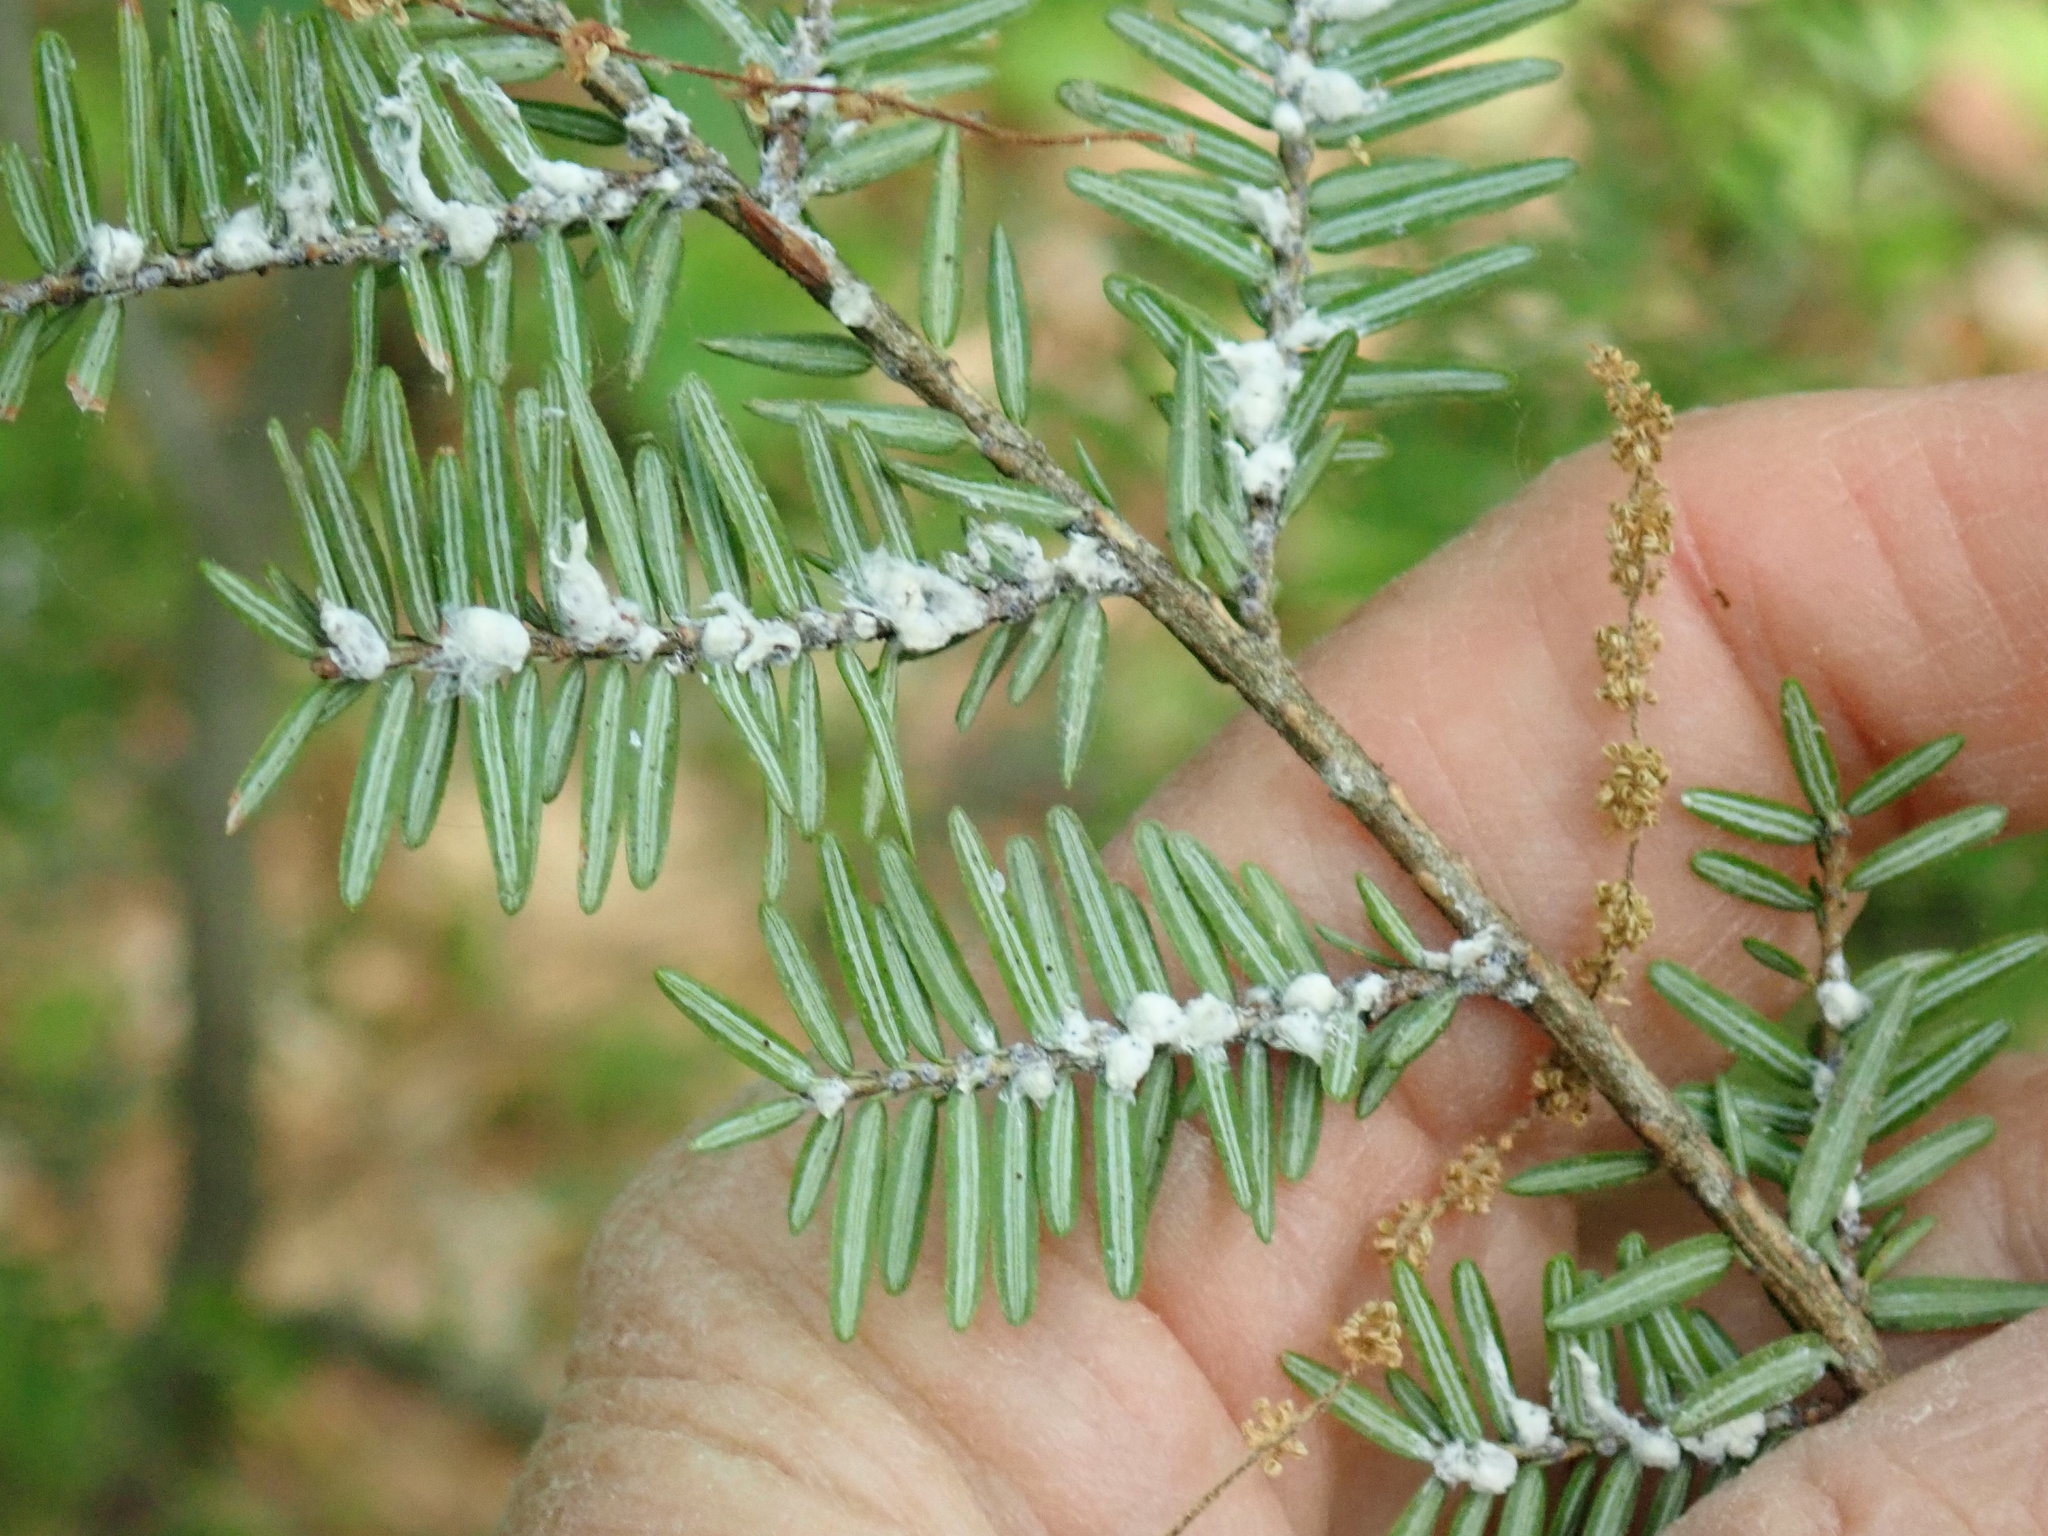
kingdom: Animalia
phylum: Arthropoda
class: Insecta
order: Hemiptera
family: Adelgidae
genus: Adelges
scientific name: Adelges tsugae
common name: Hemlock woolly adelgid
